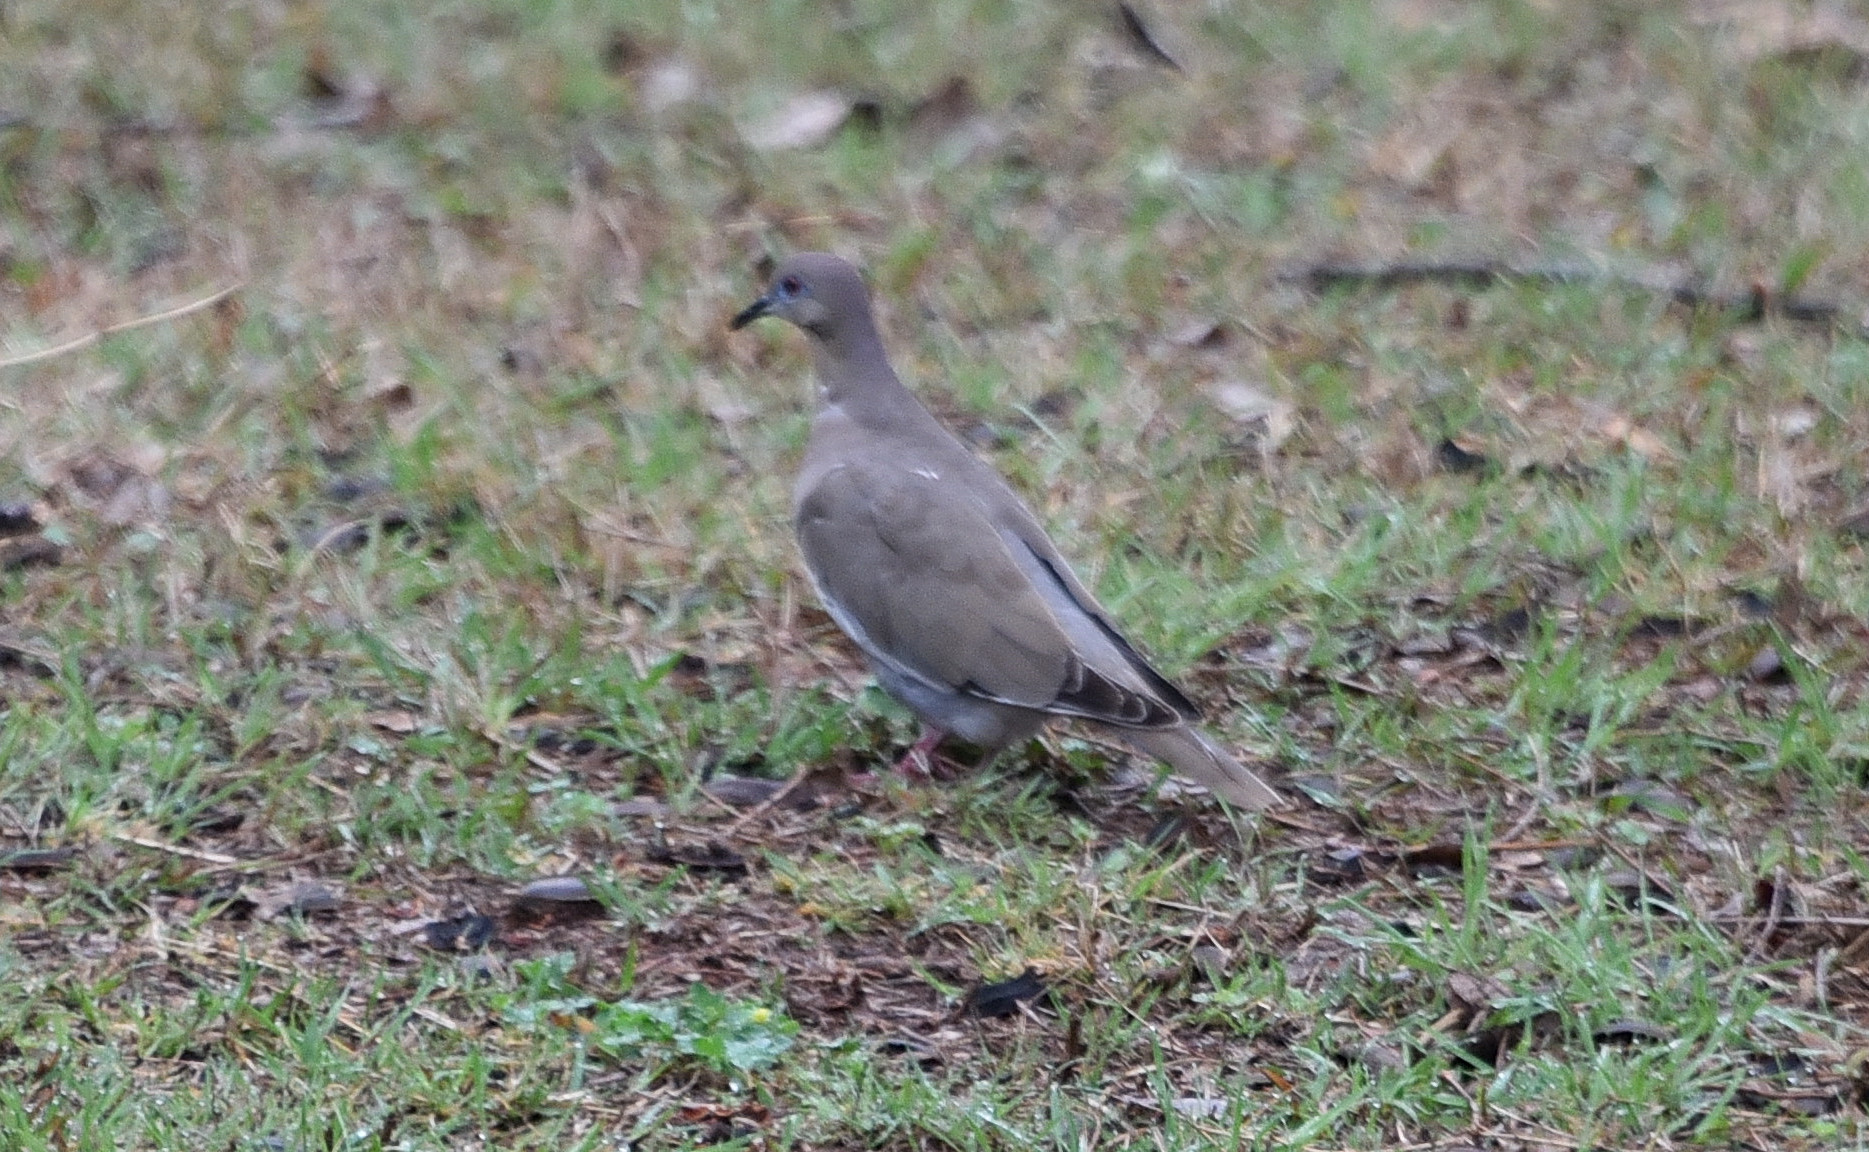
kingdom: Animalia
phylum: Chordata
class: Aves
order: Columbiformes
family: Columbidae
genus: Zenaida
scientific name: Zenaida asiatica
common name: White-winged dove
